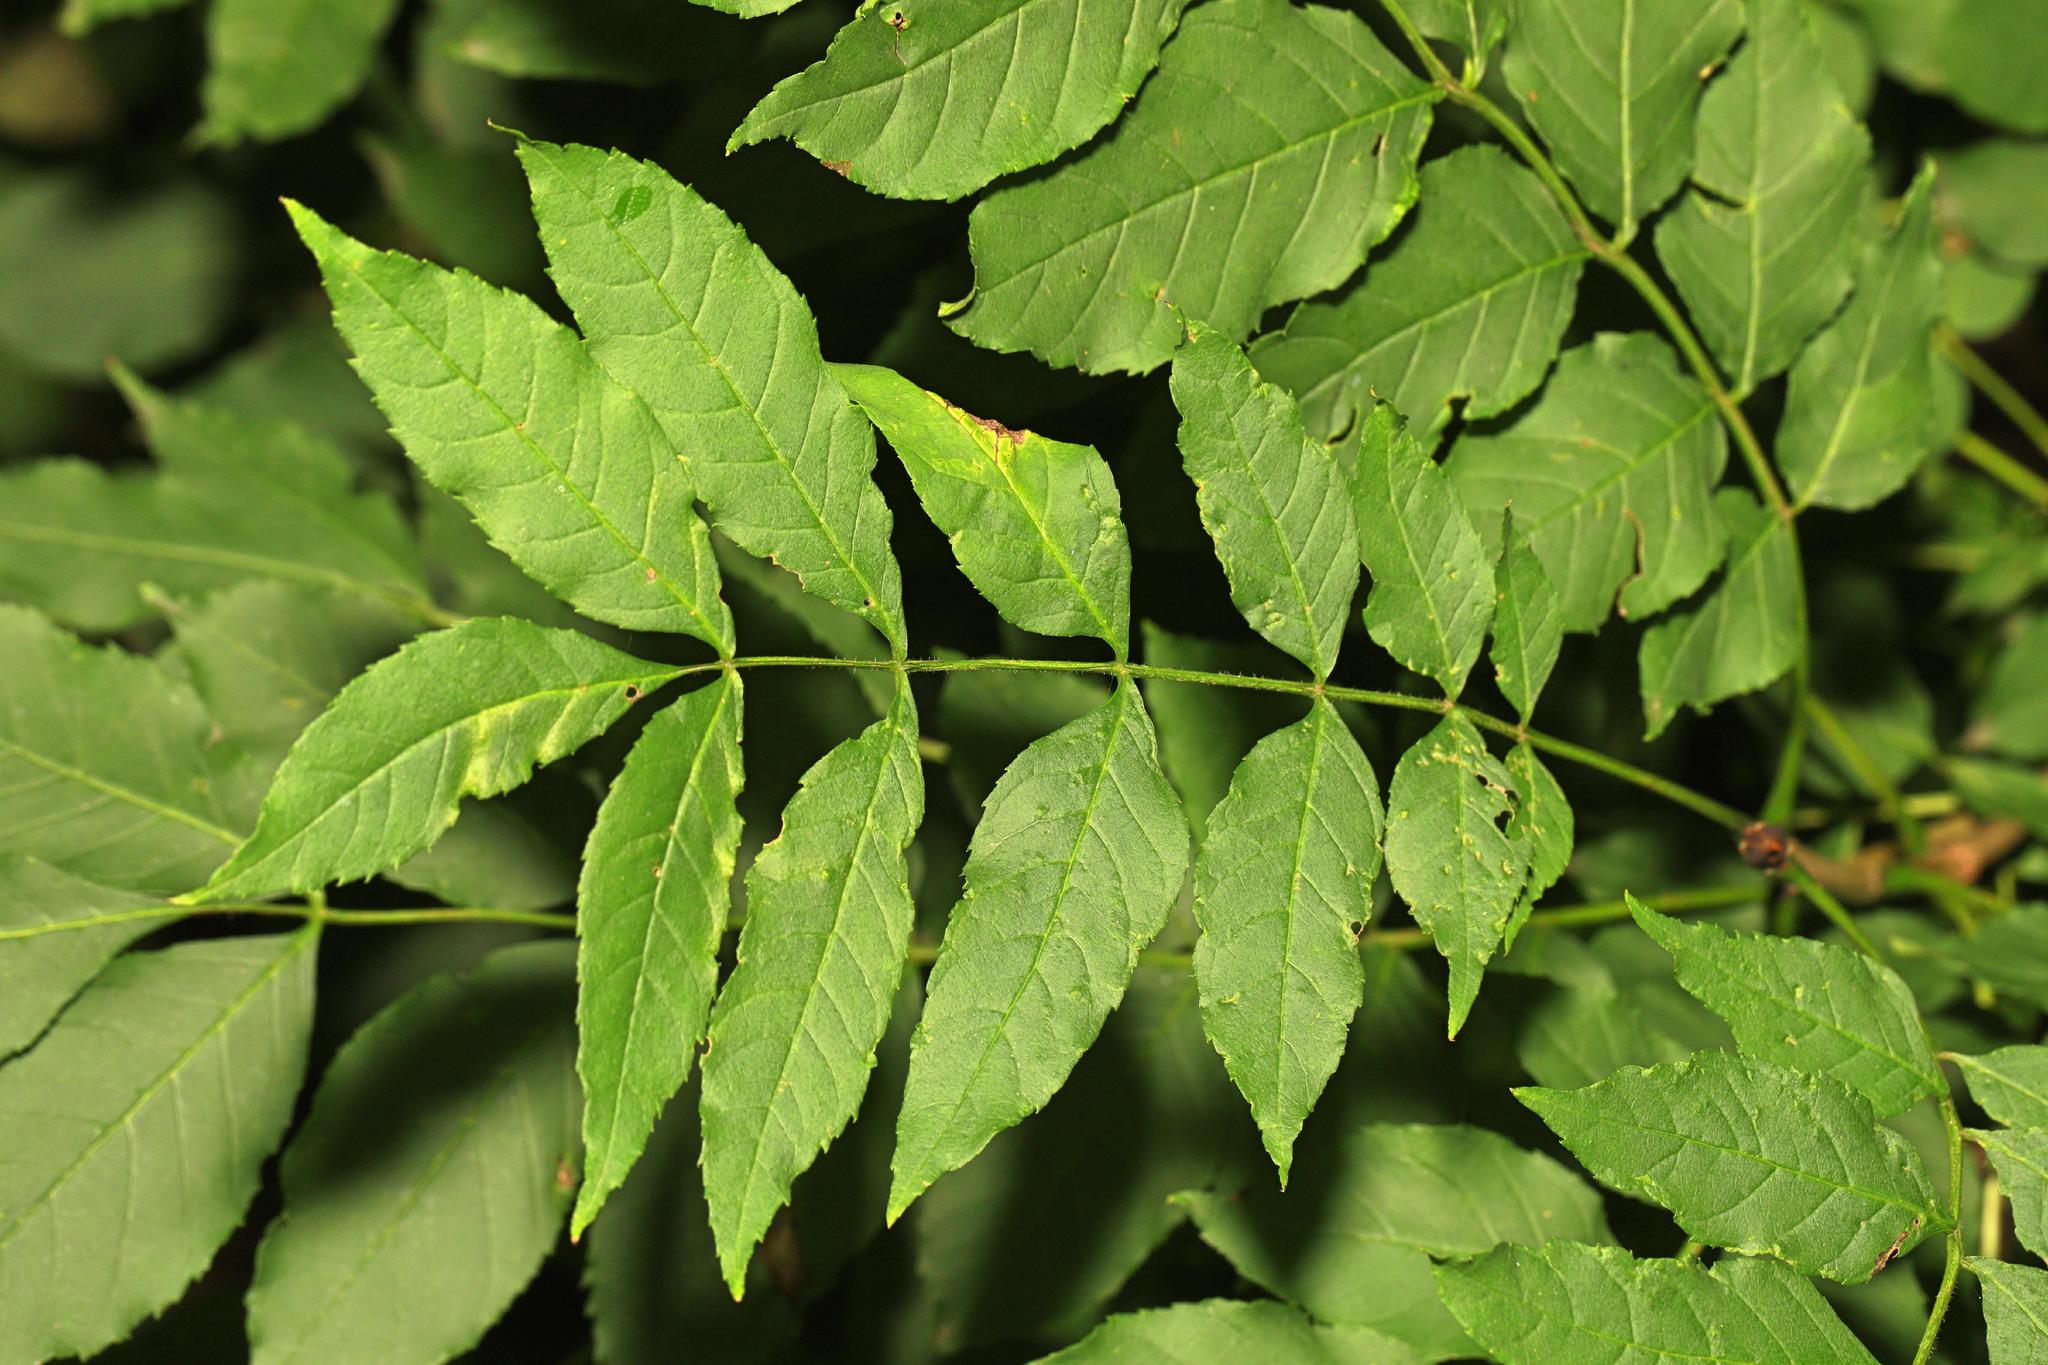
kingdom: Plantae
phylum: Tracheophyta
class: Magnoliopsida
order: Lamiales
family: Oleaceae
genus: Fraxinus
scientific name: Fraxinus excelsior
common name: European ash
